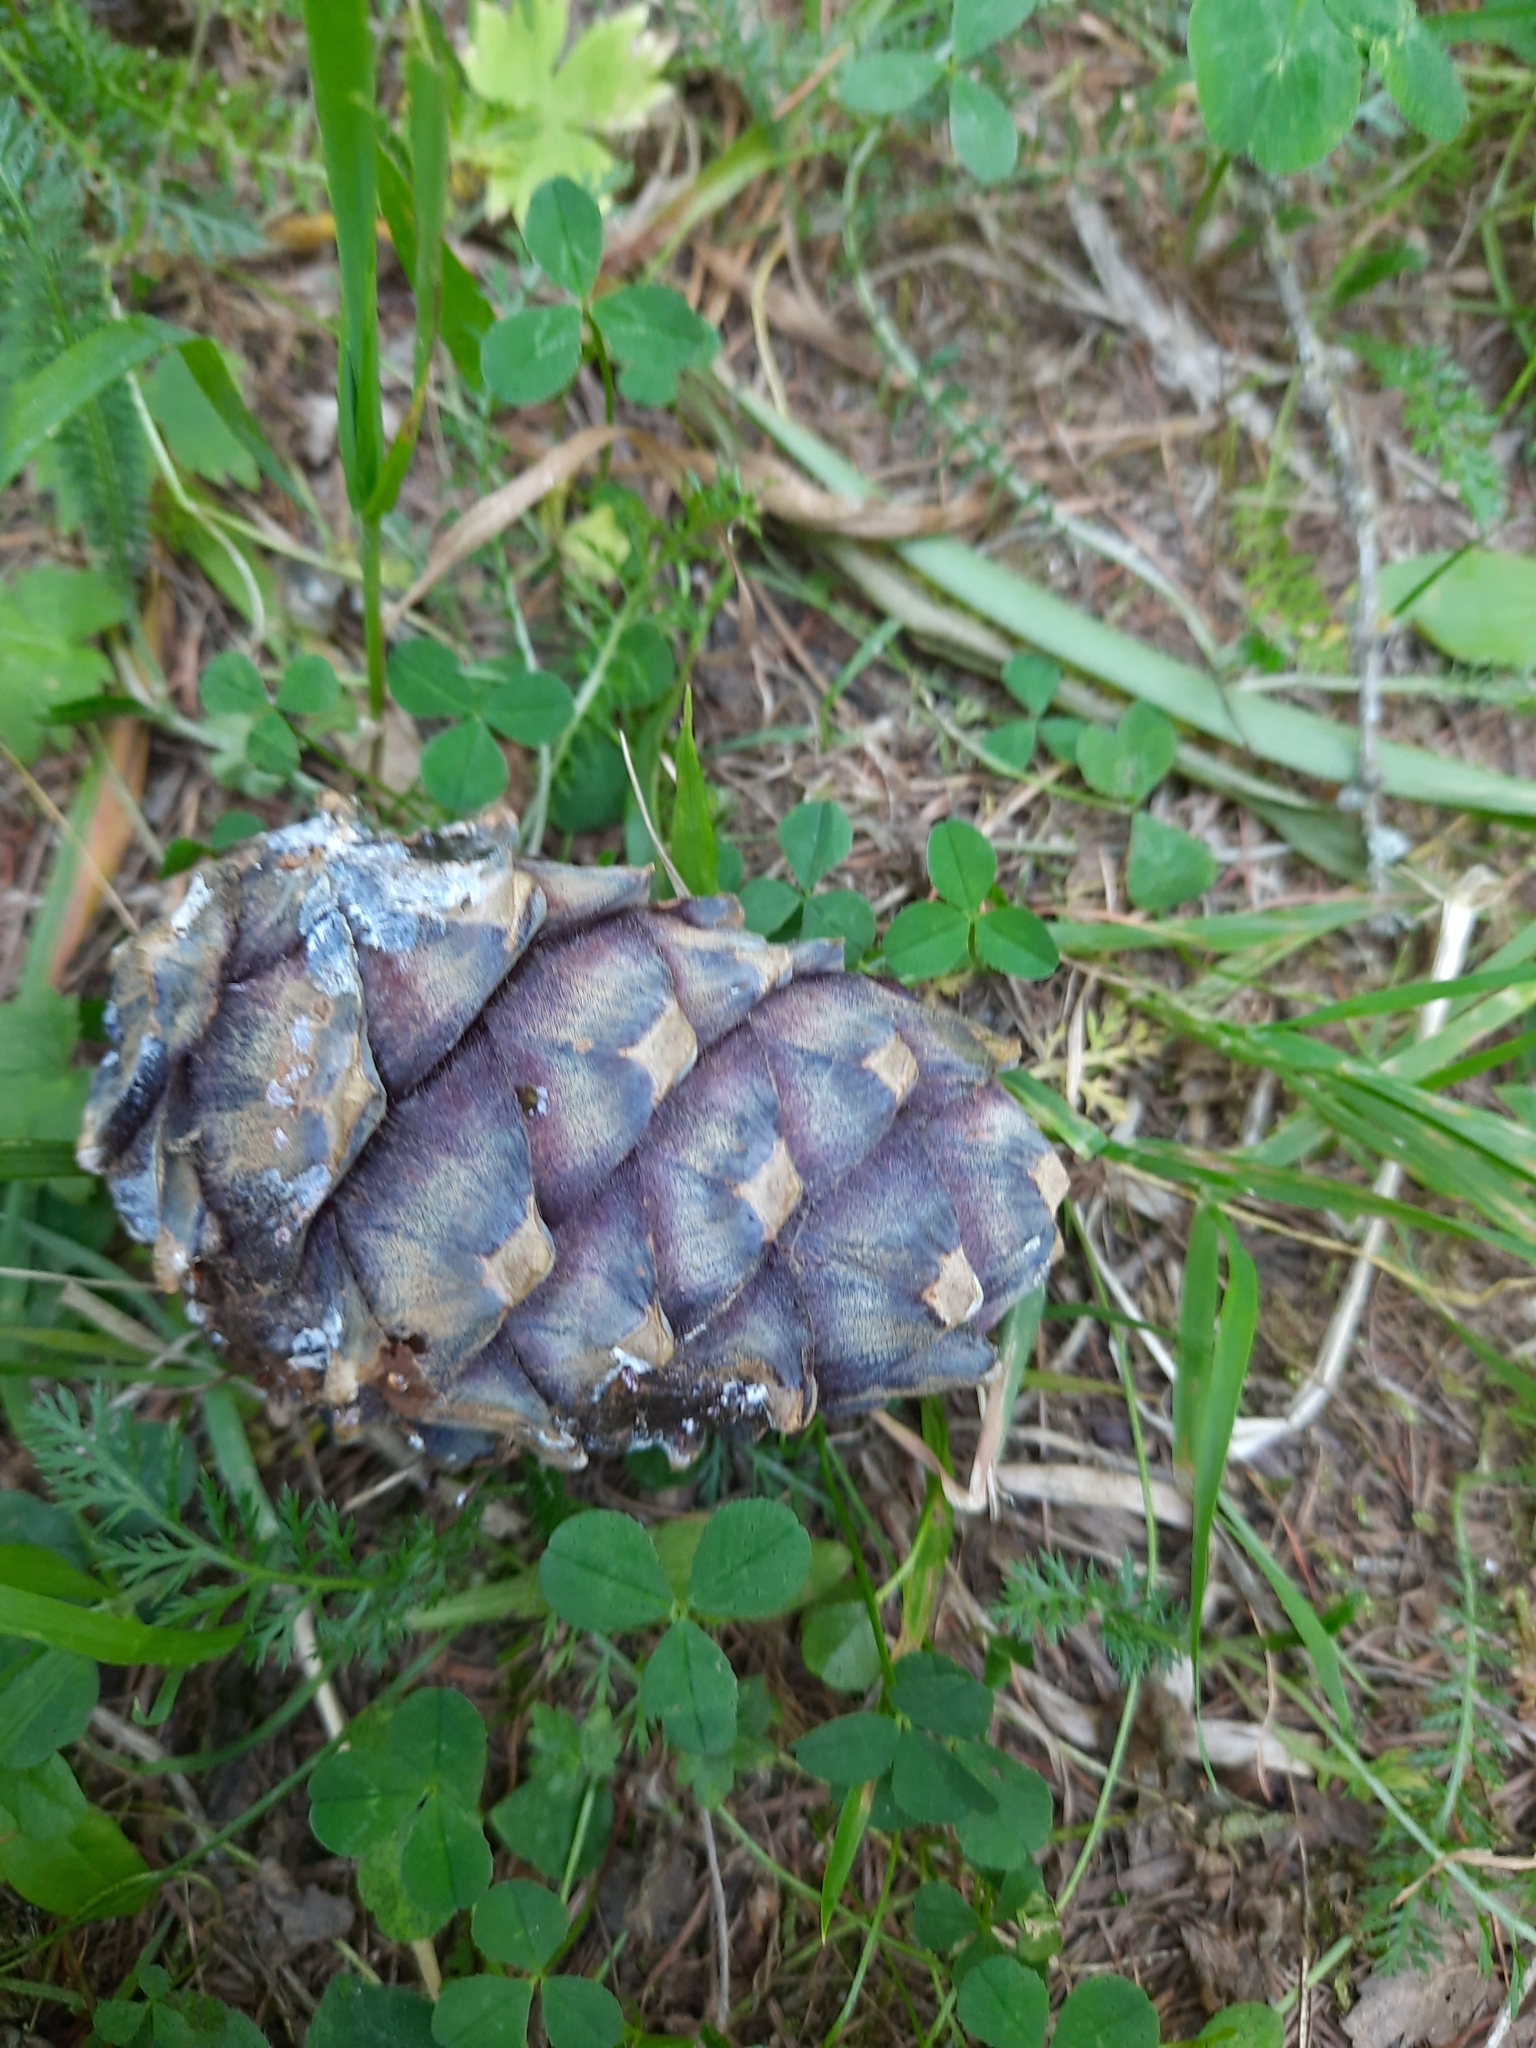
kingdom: Plantae
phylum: Tracheophyta
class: Pinopsida
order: Pinales
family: Pinaceae
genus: Pinus
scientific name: Pinus sibirica
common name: Siberian pine
